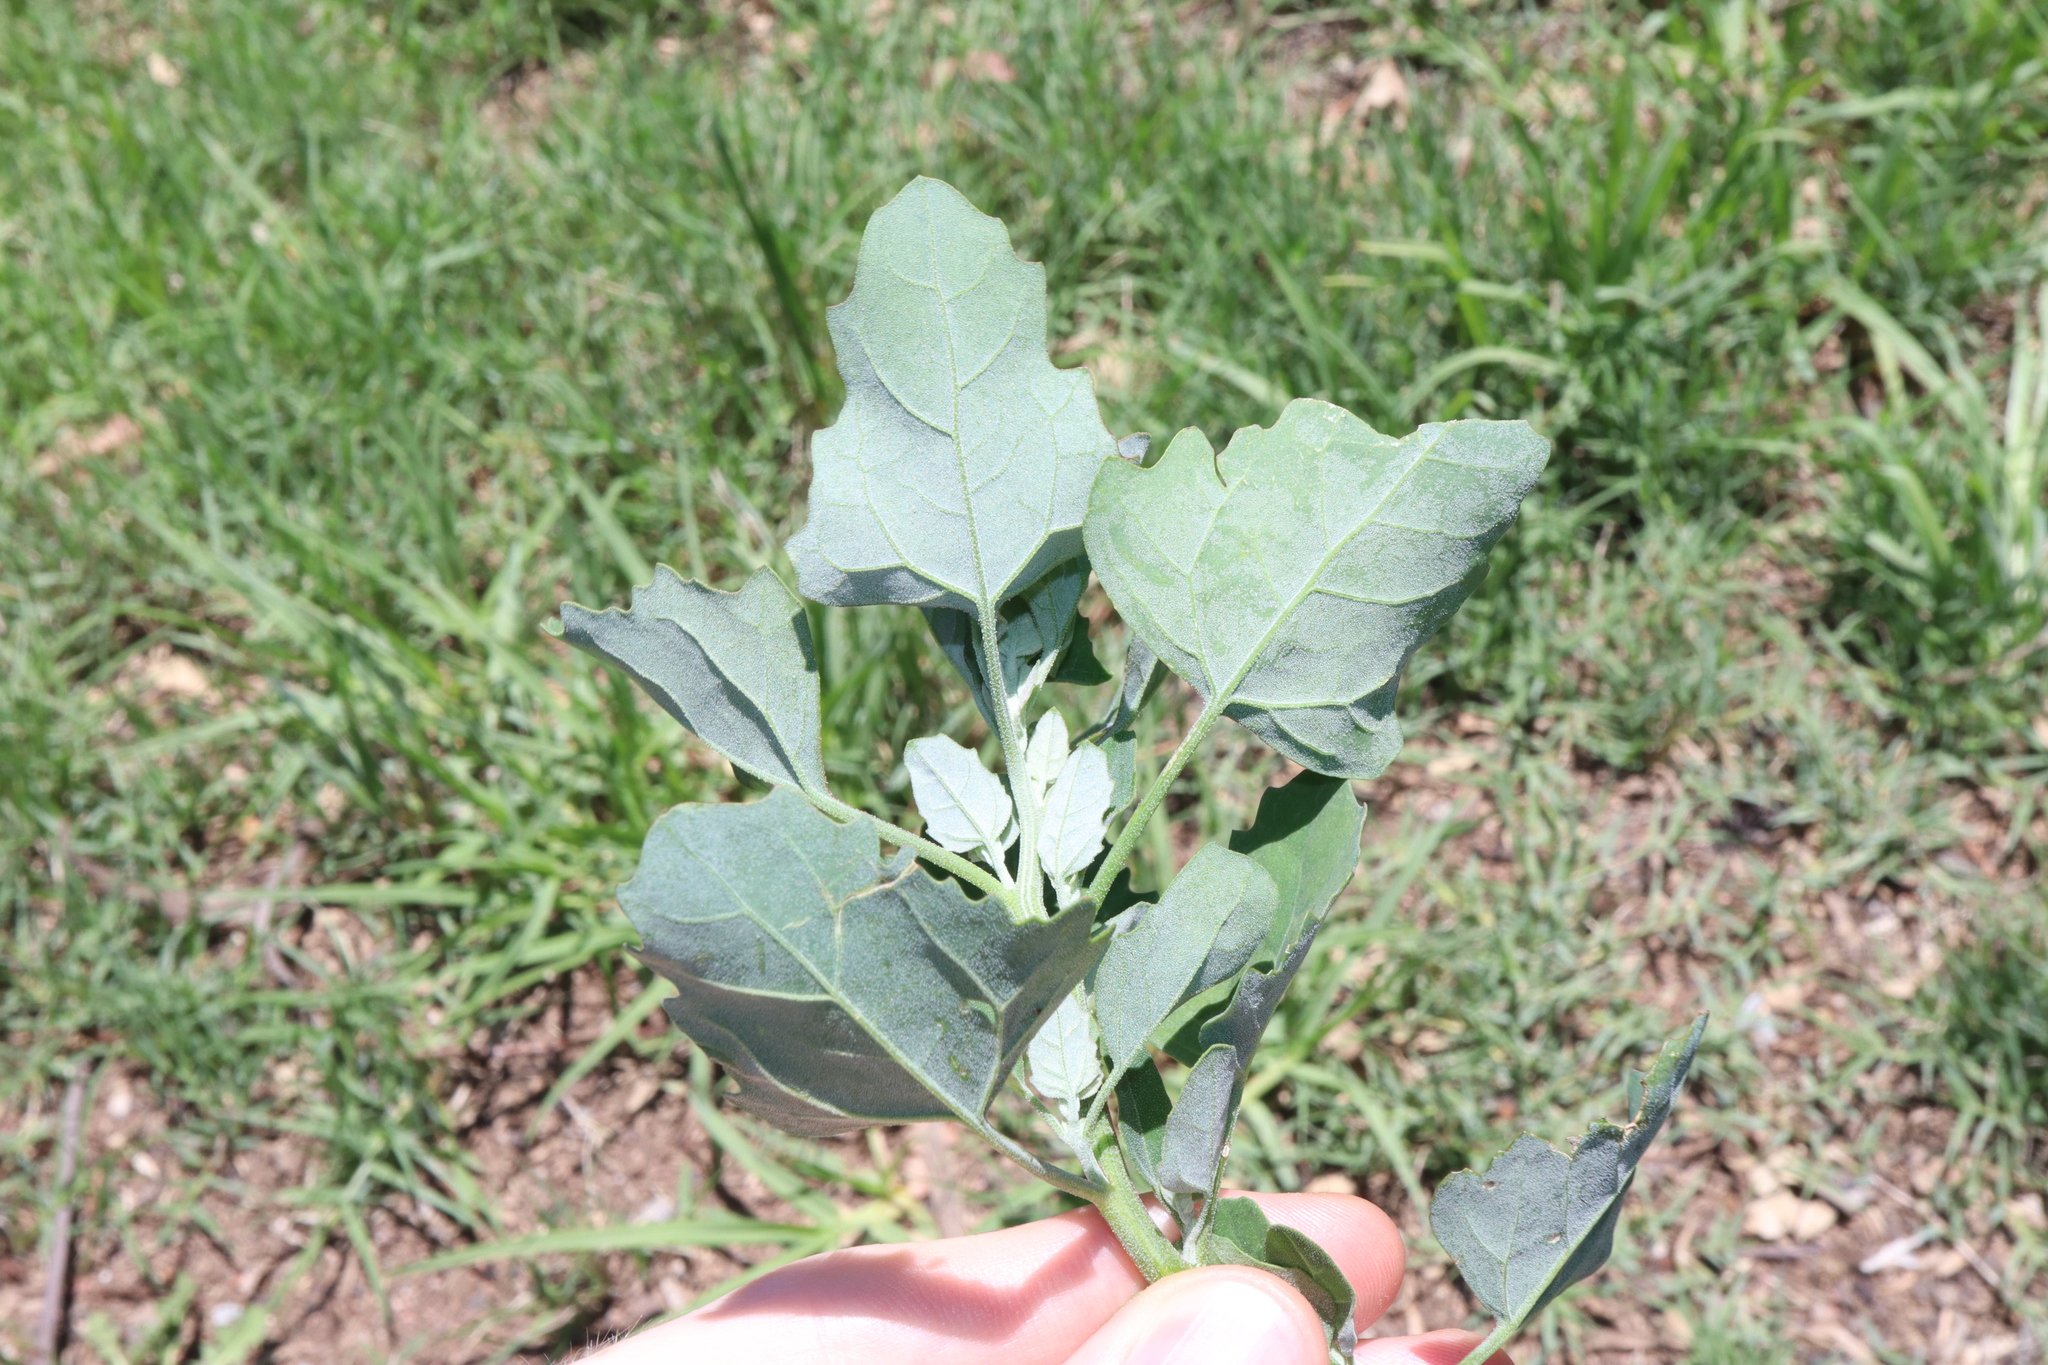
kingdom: Plantae
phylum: Tracheophyta
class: Magnoliopsida
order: Caryophyllales
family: Amaranthaceae
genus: Chenopodium
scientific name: Chenopodium album
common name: Fat-hen
